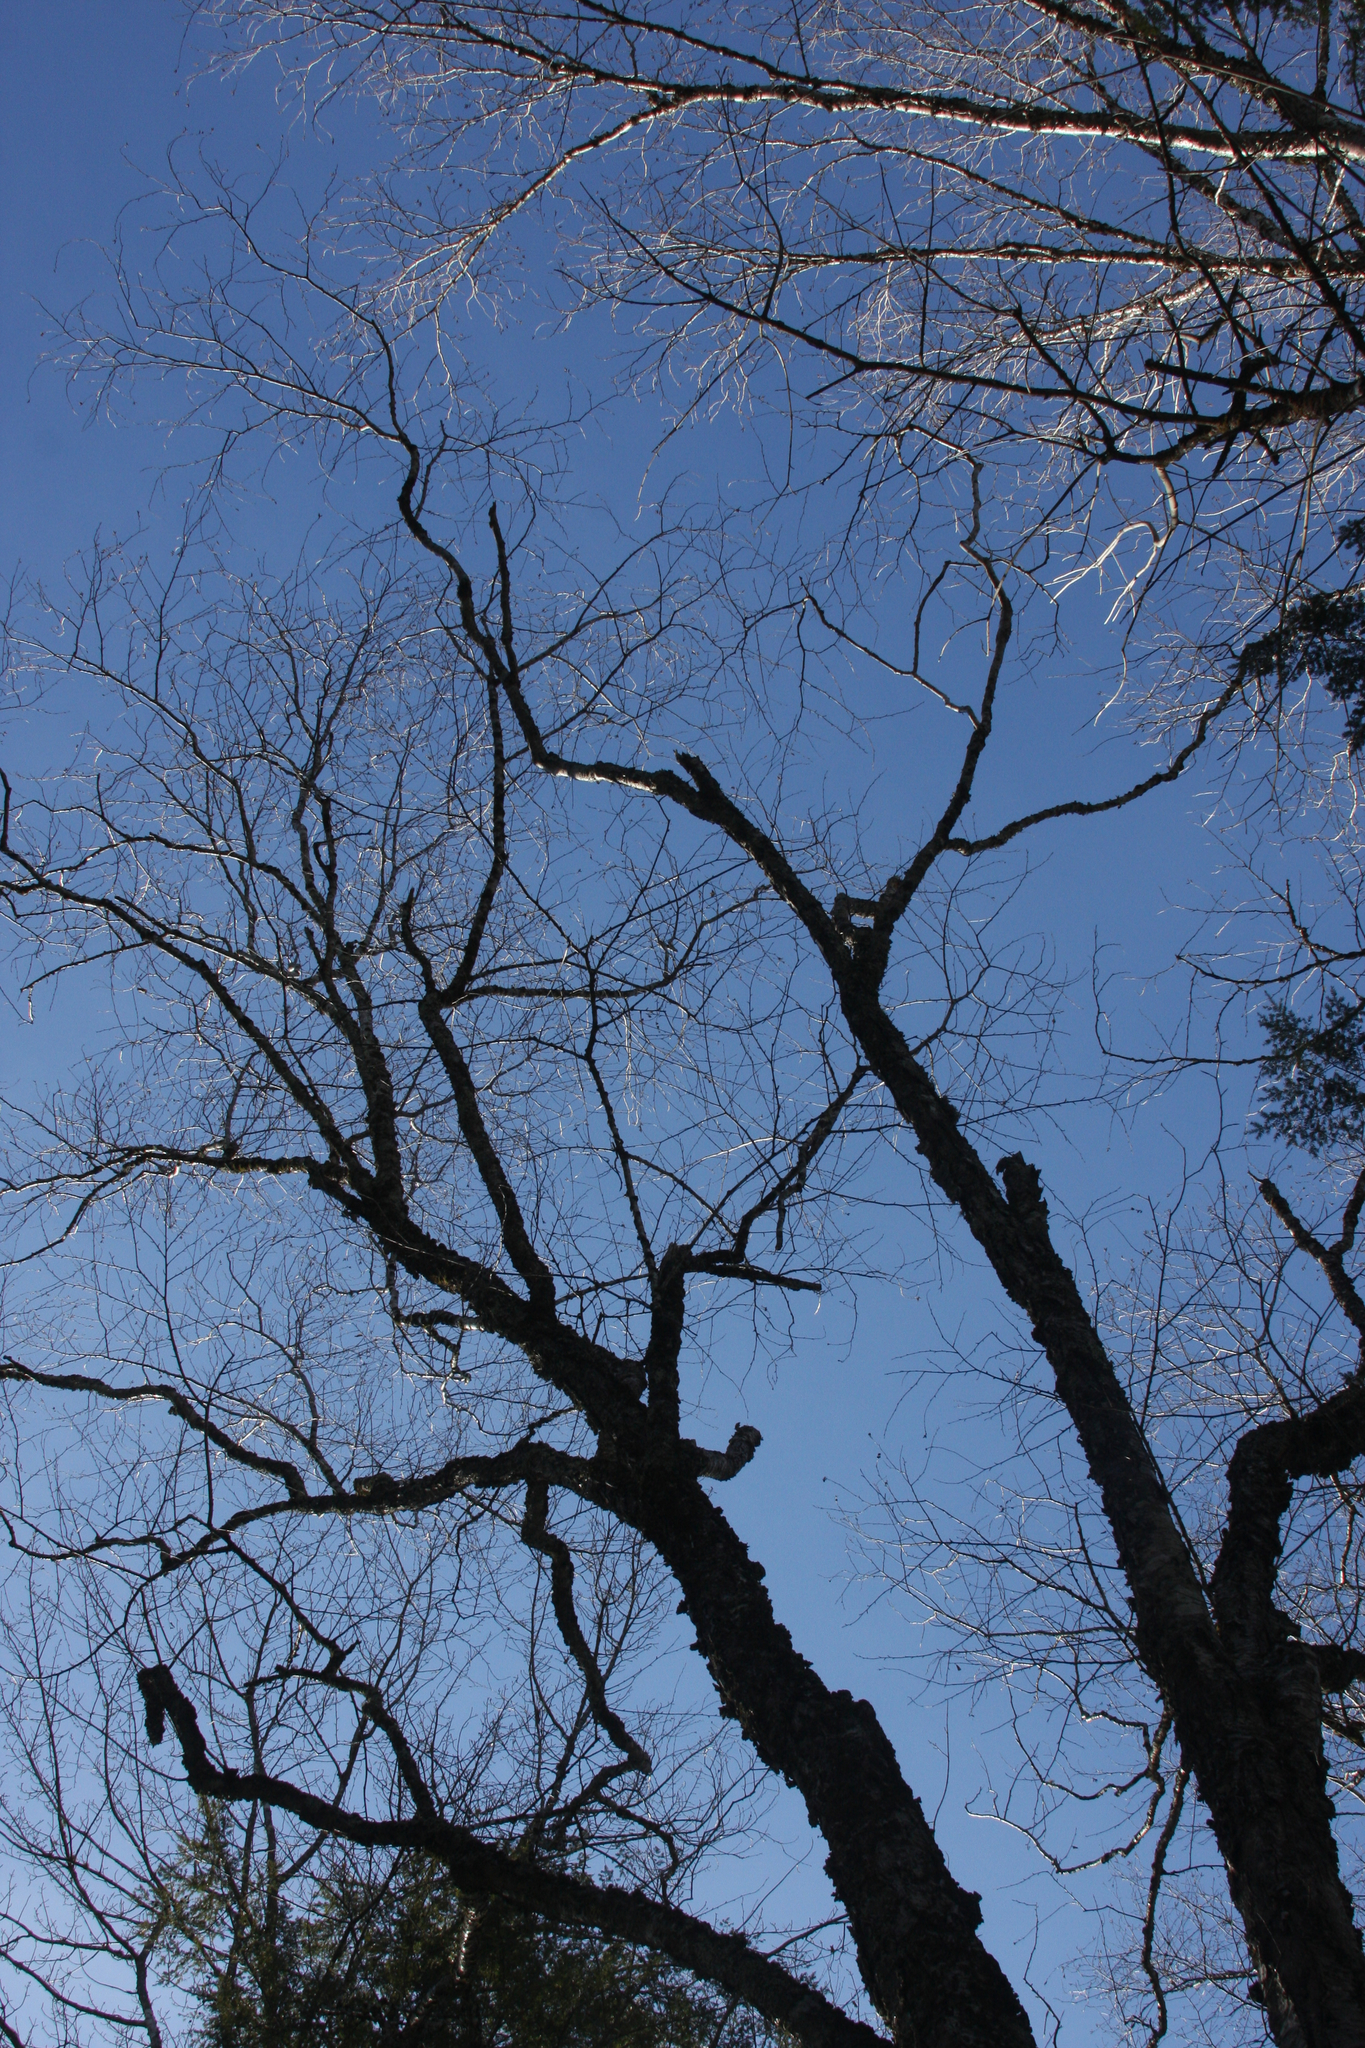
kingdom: Plantae
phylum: Tracheophyta
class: Magnoliopsida
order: Fagales
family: Betulaceae
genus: Betula
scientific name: Betula alleghaniensis
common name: Yellow birch
